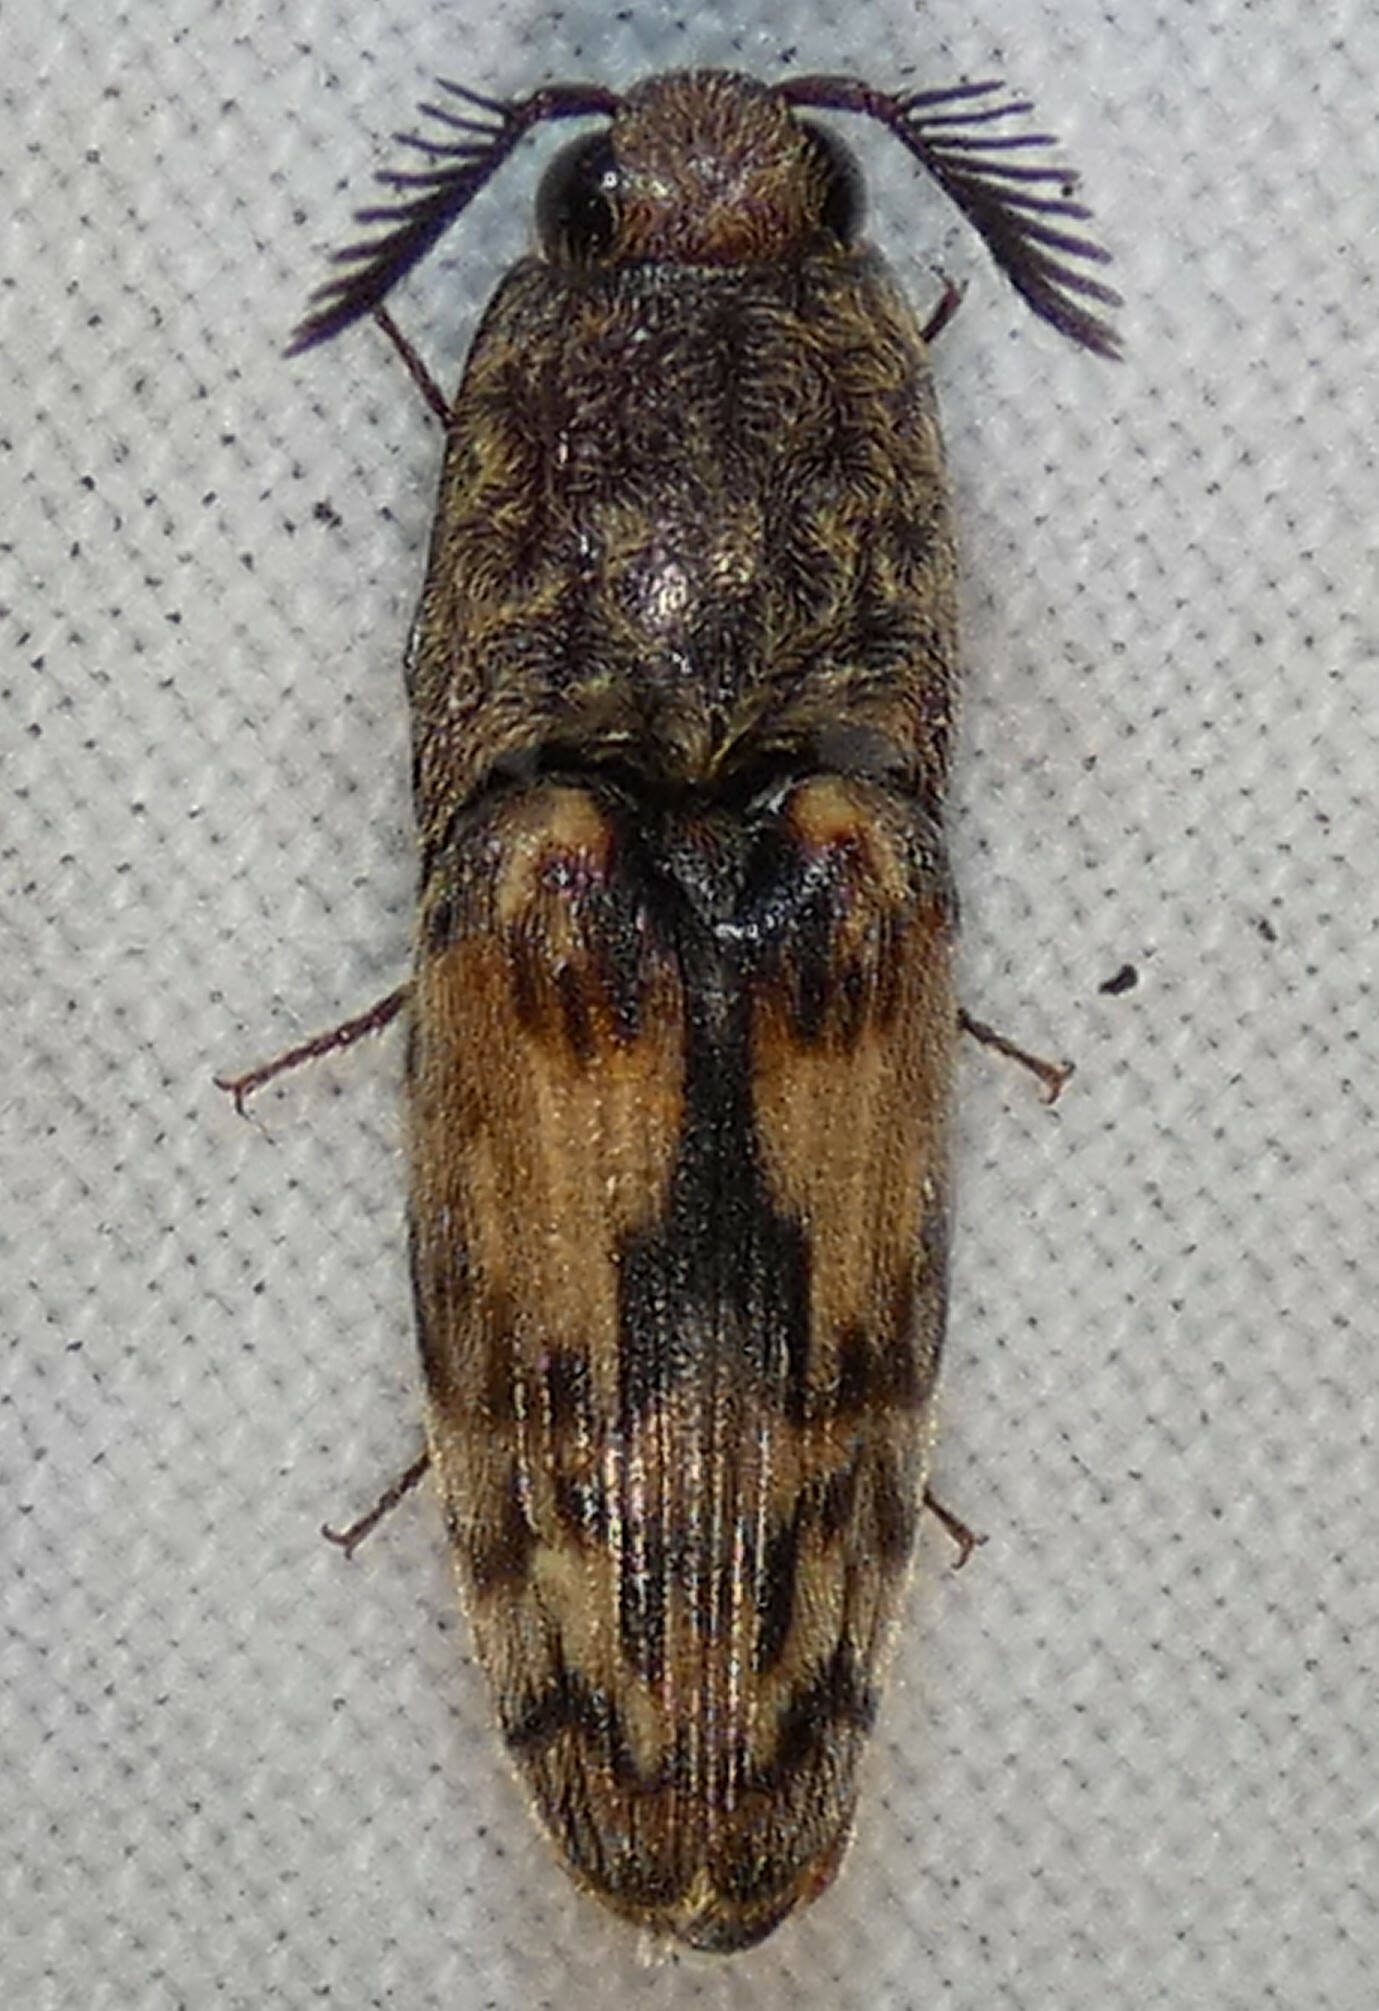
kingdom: Animalia
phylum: Arthropoda
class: Insecta
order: Coleoptera
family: Elateridae
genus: Pherhimius
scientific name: Pherhimius fascicularis
